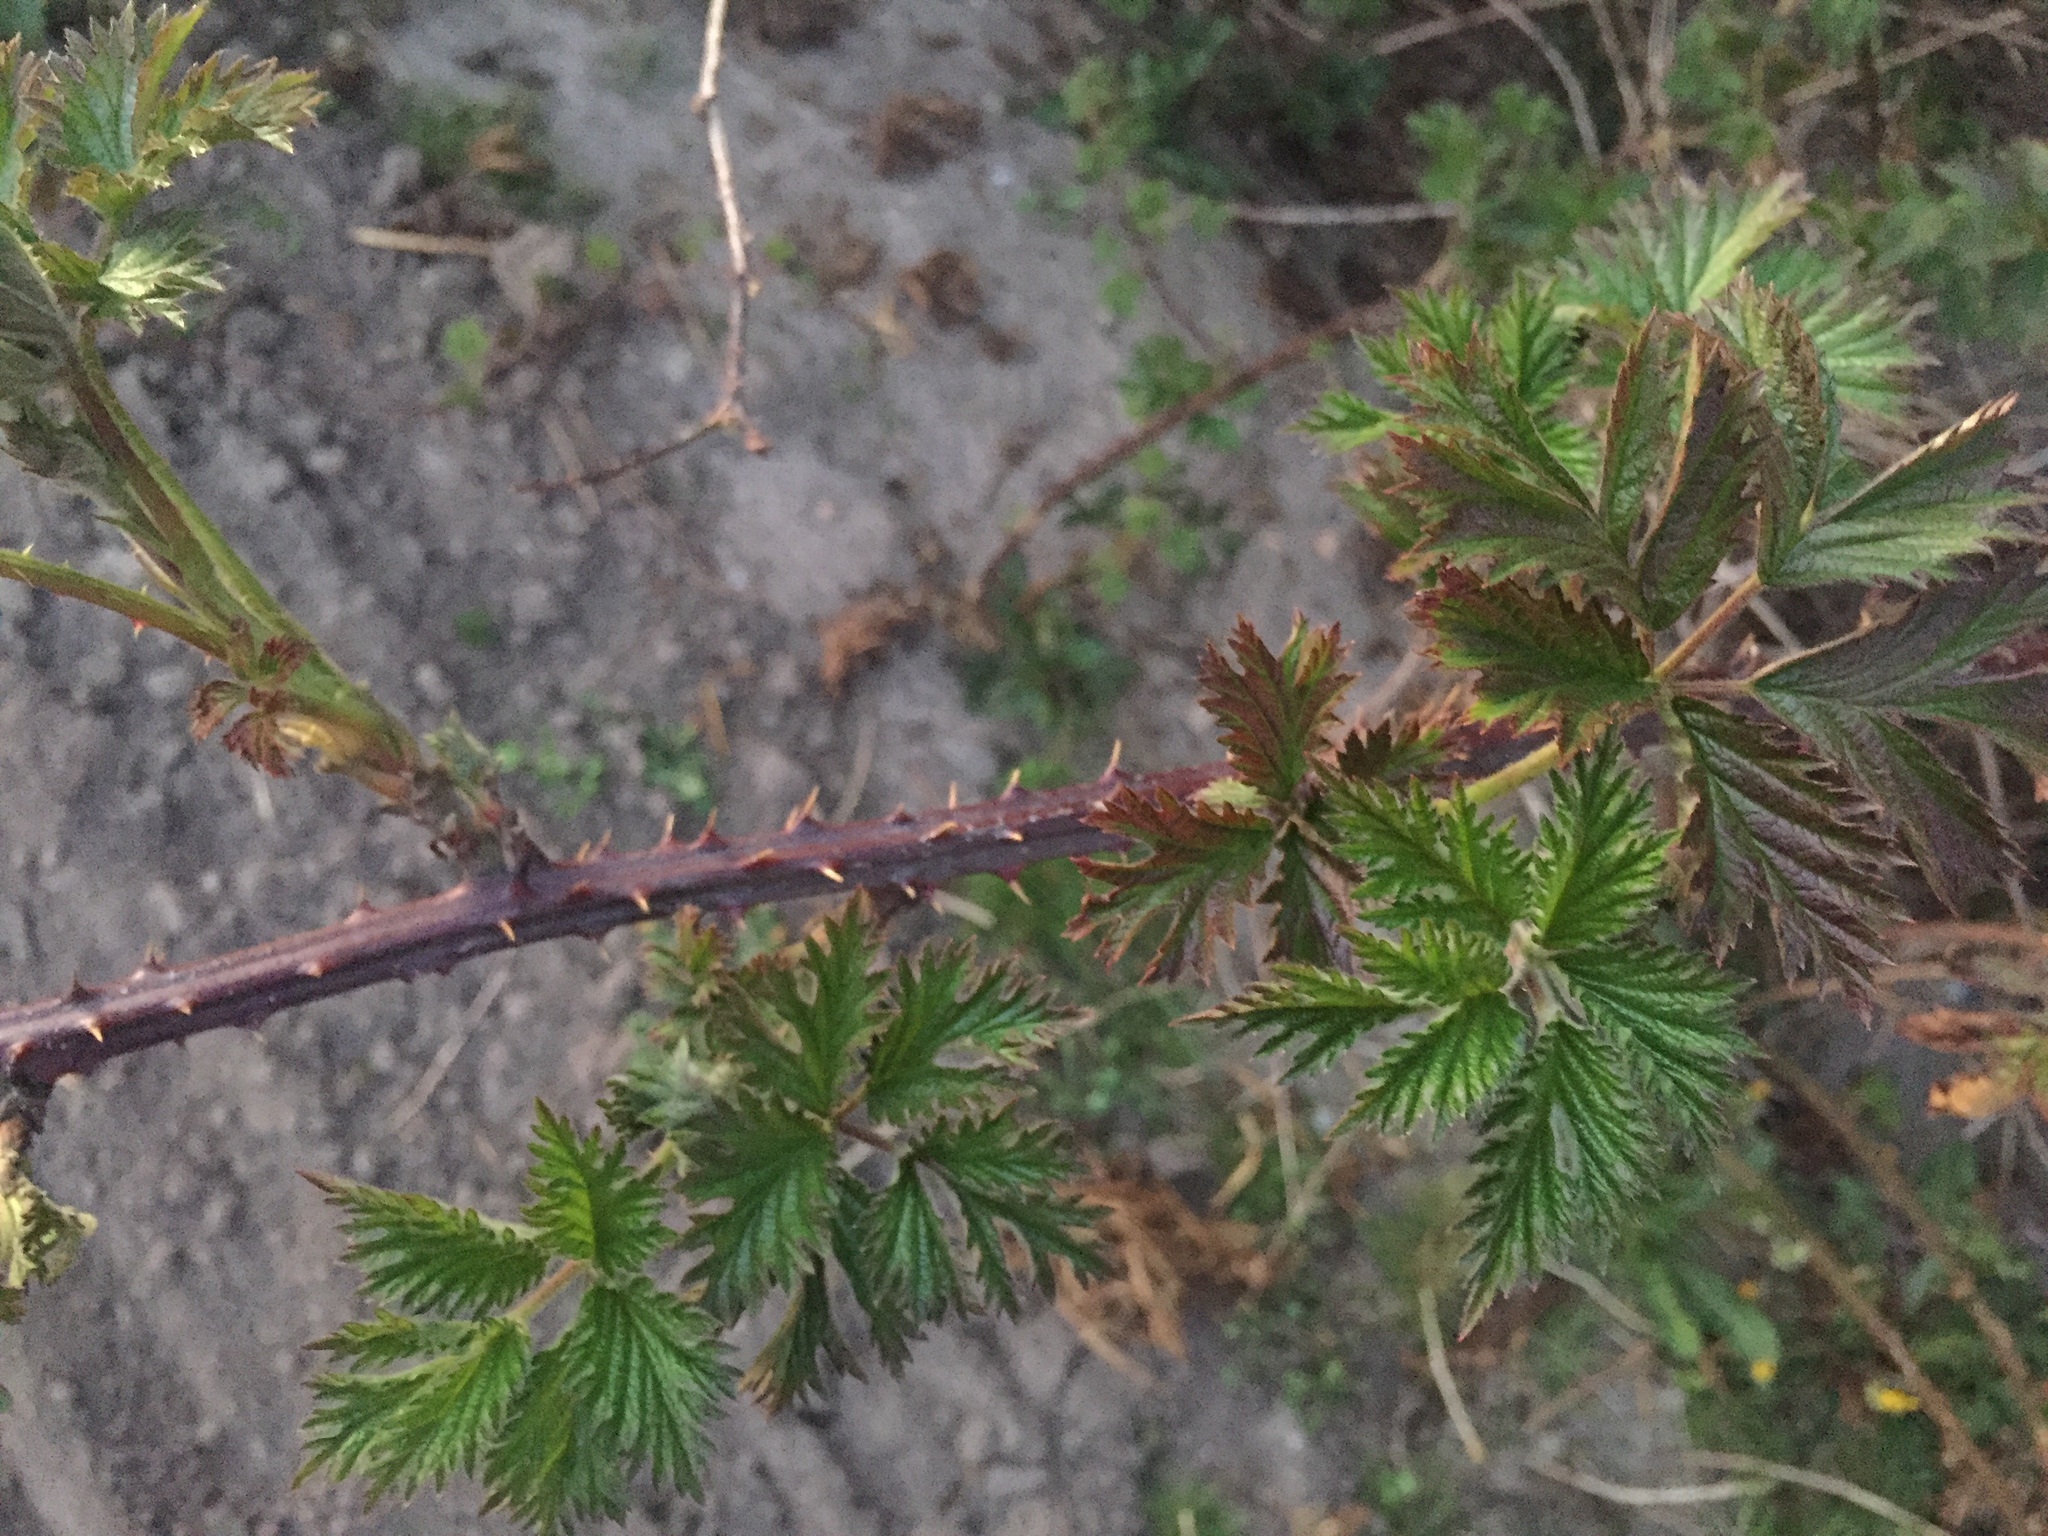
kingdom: Plantae
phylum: Tracheophyta
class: Magnoliopsida
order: Rosales
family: Rosaceae
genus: Rubus
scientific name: Rubus laciniatus
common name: Evergreen blackberry
